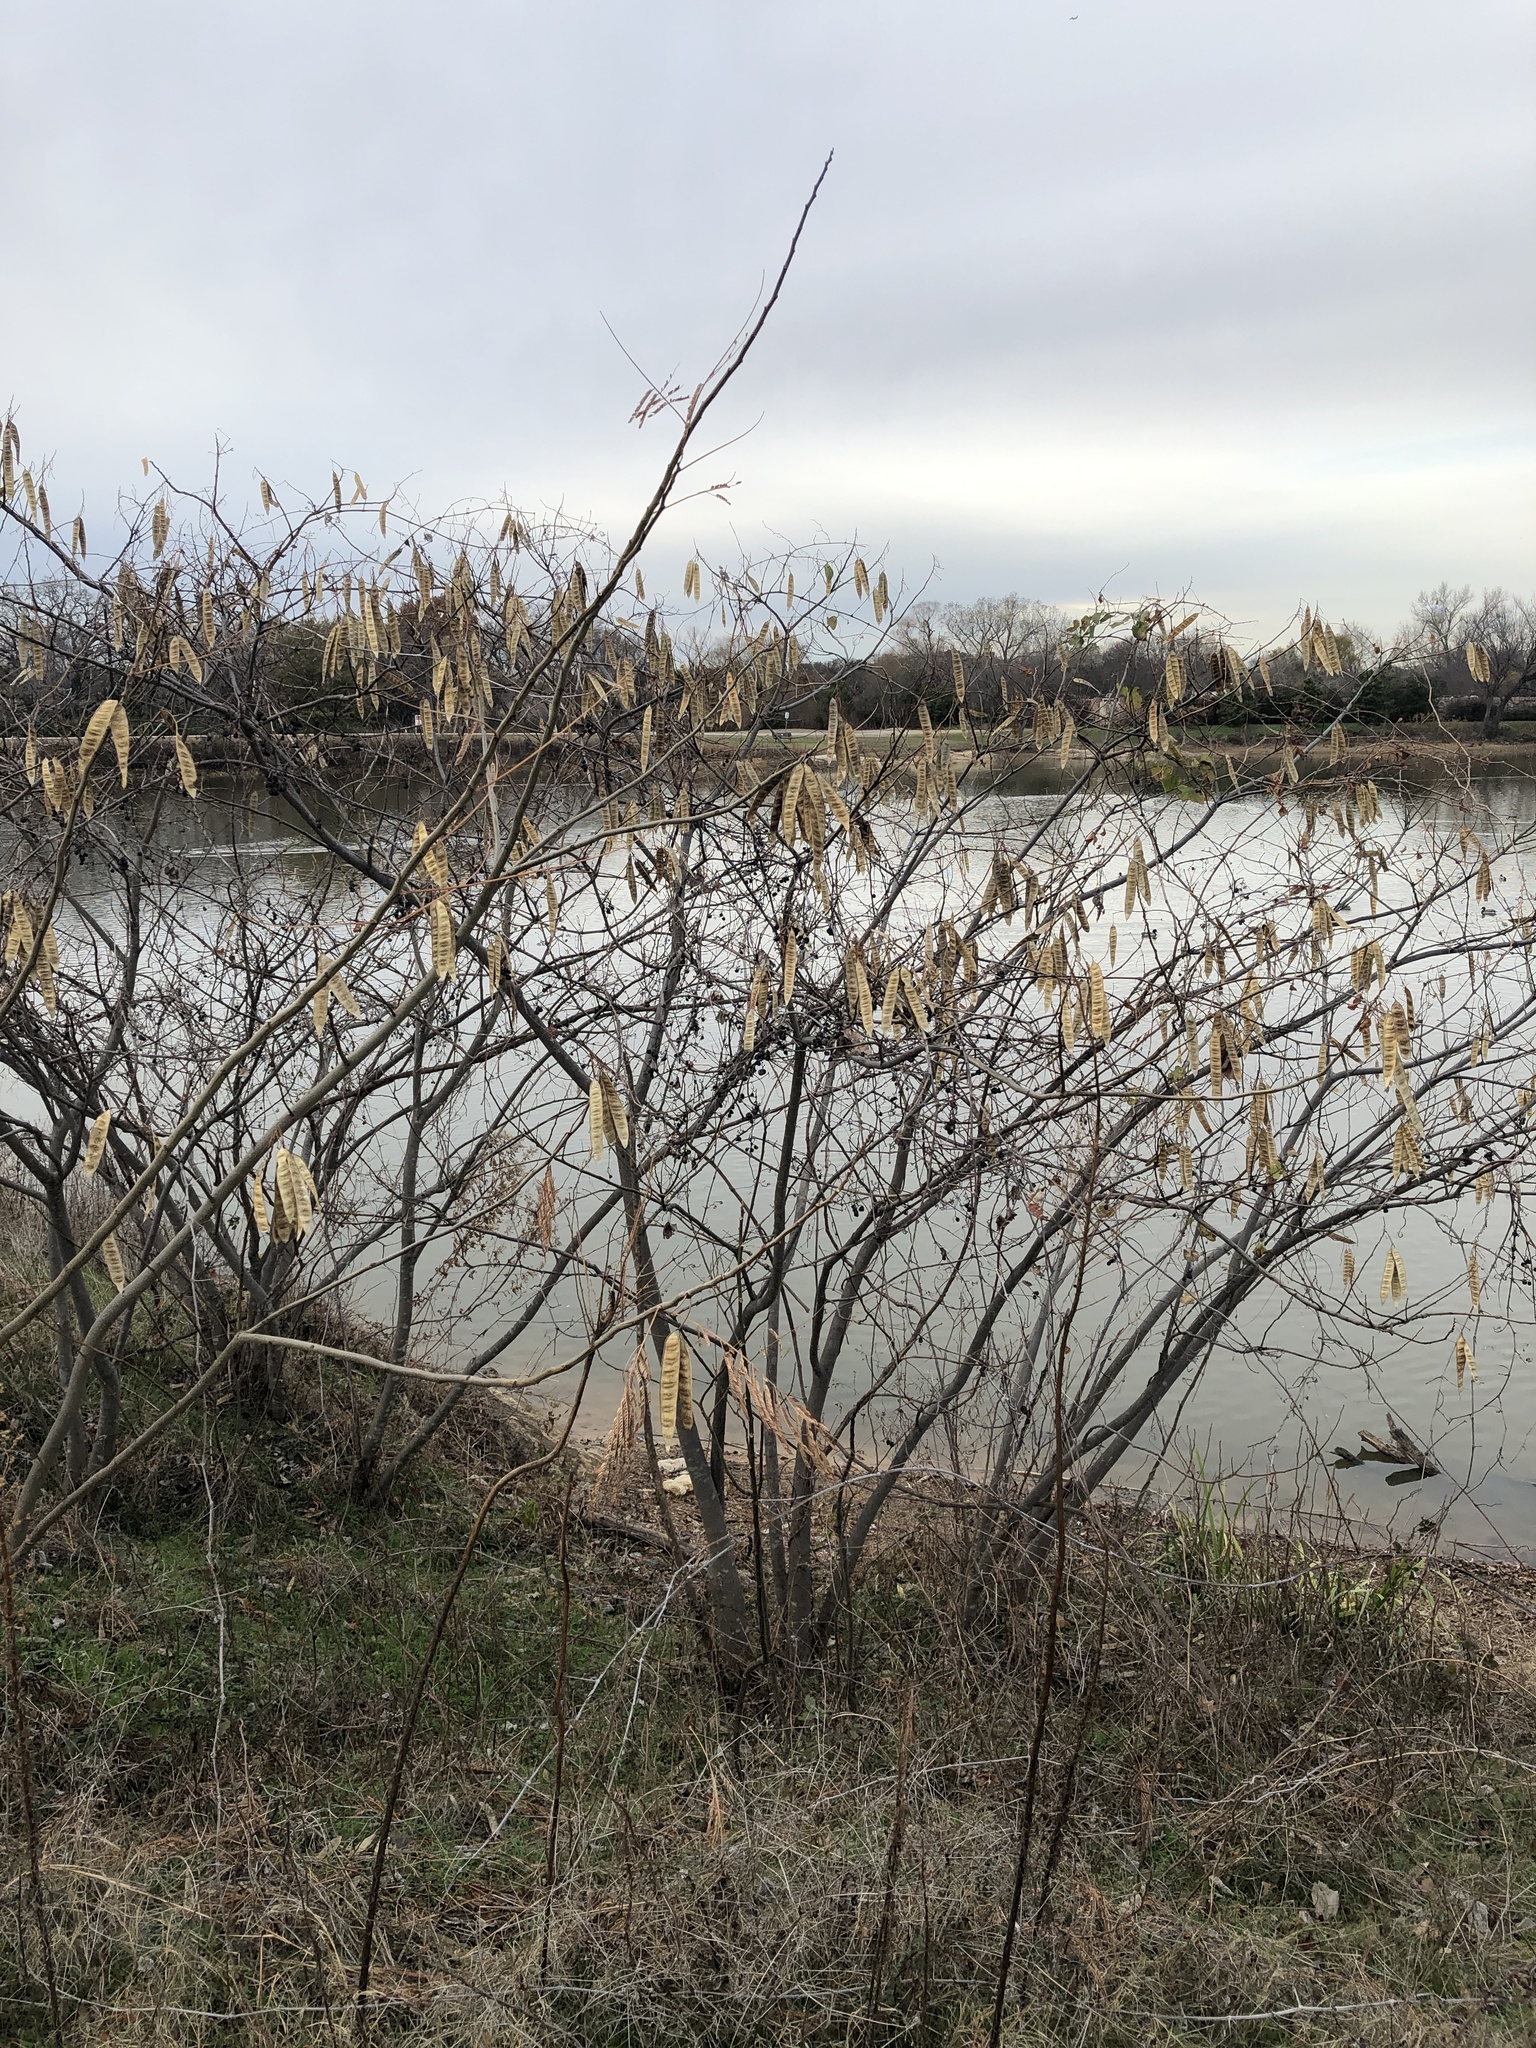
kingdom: Plantae
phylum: Tracheophyta
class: Magnoliopsida
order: Fabales
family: Fabaceae
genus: Albizia
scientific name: Albizia julibrissin
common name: Silktree
